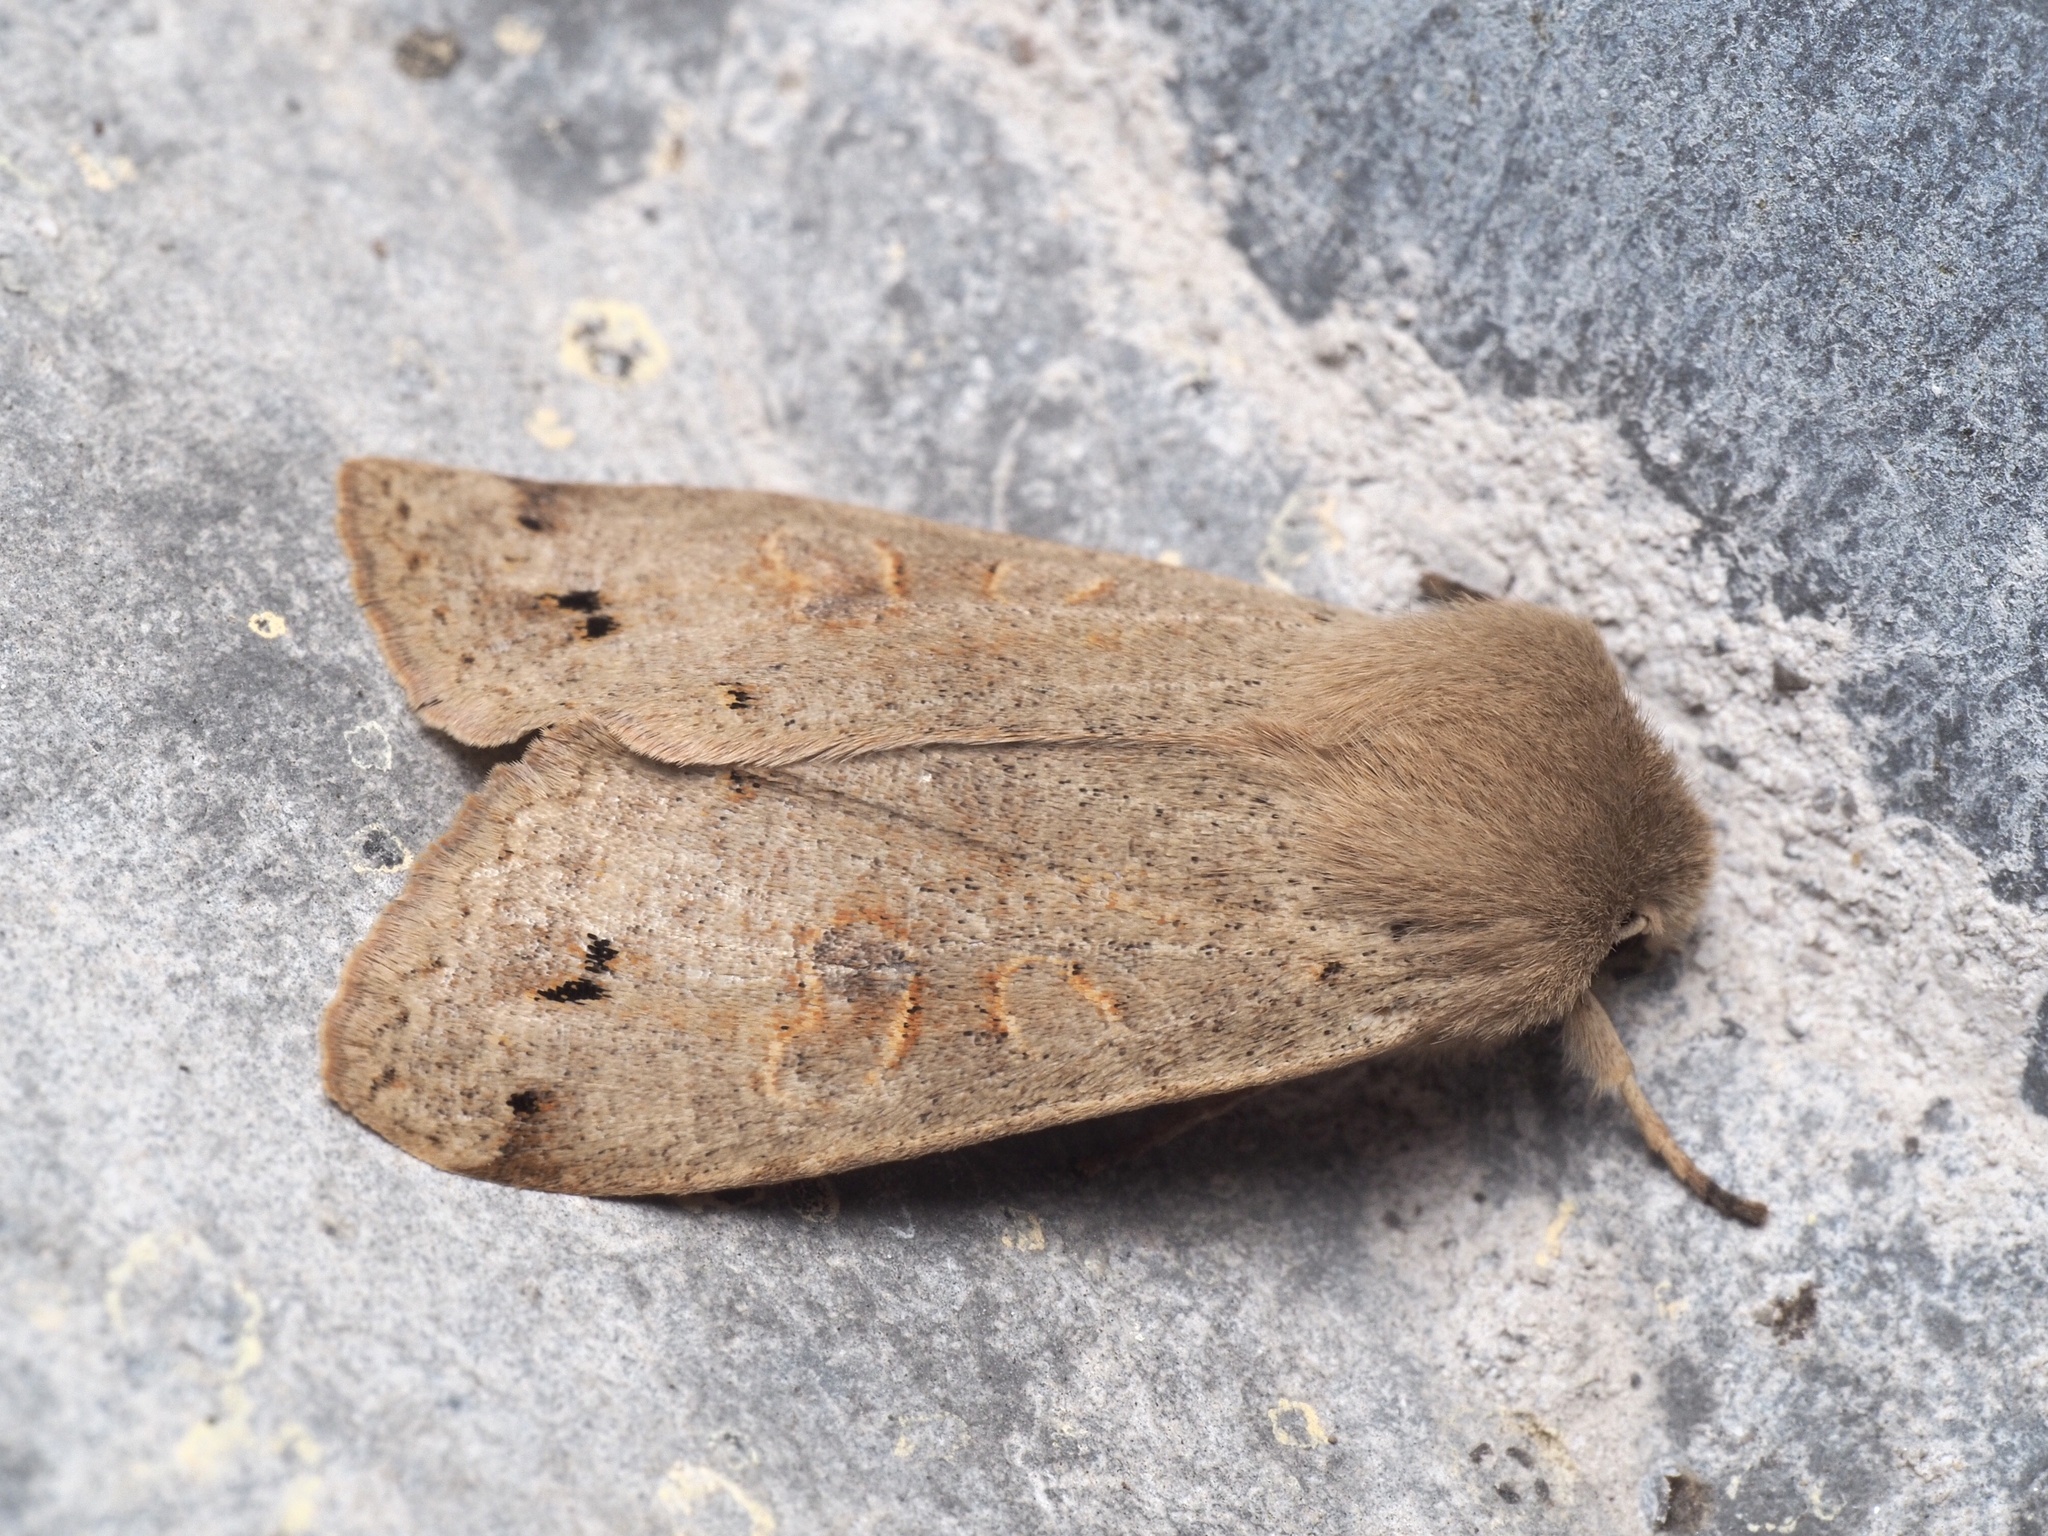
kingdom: Animalia
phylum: Arthropoda
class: Insecta
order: Lepidoptera
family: Noctuidae
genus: Anorthoa
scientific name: Anorthoa munda
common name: Twin-spotted quaker
